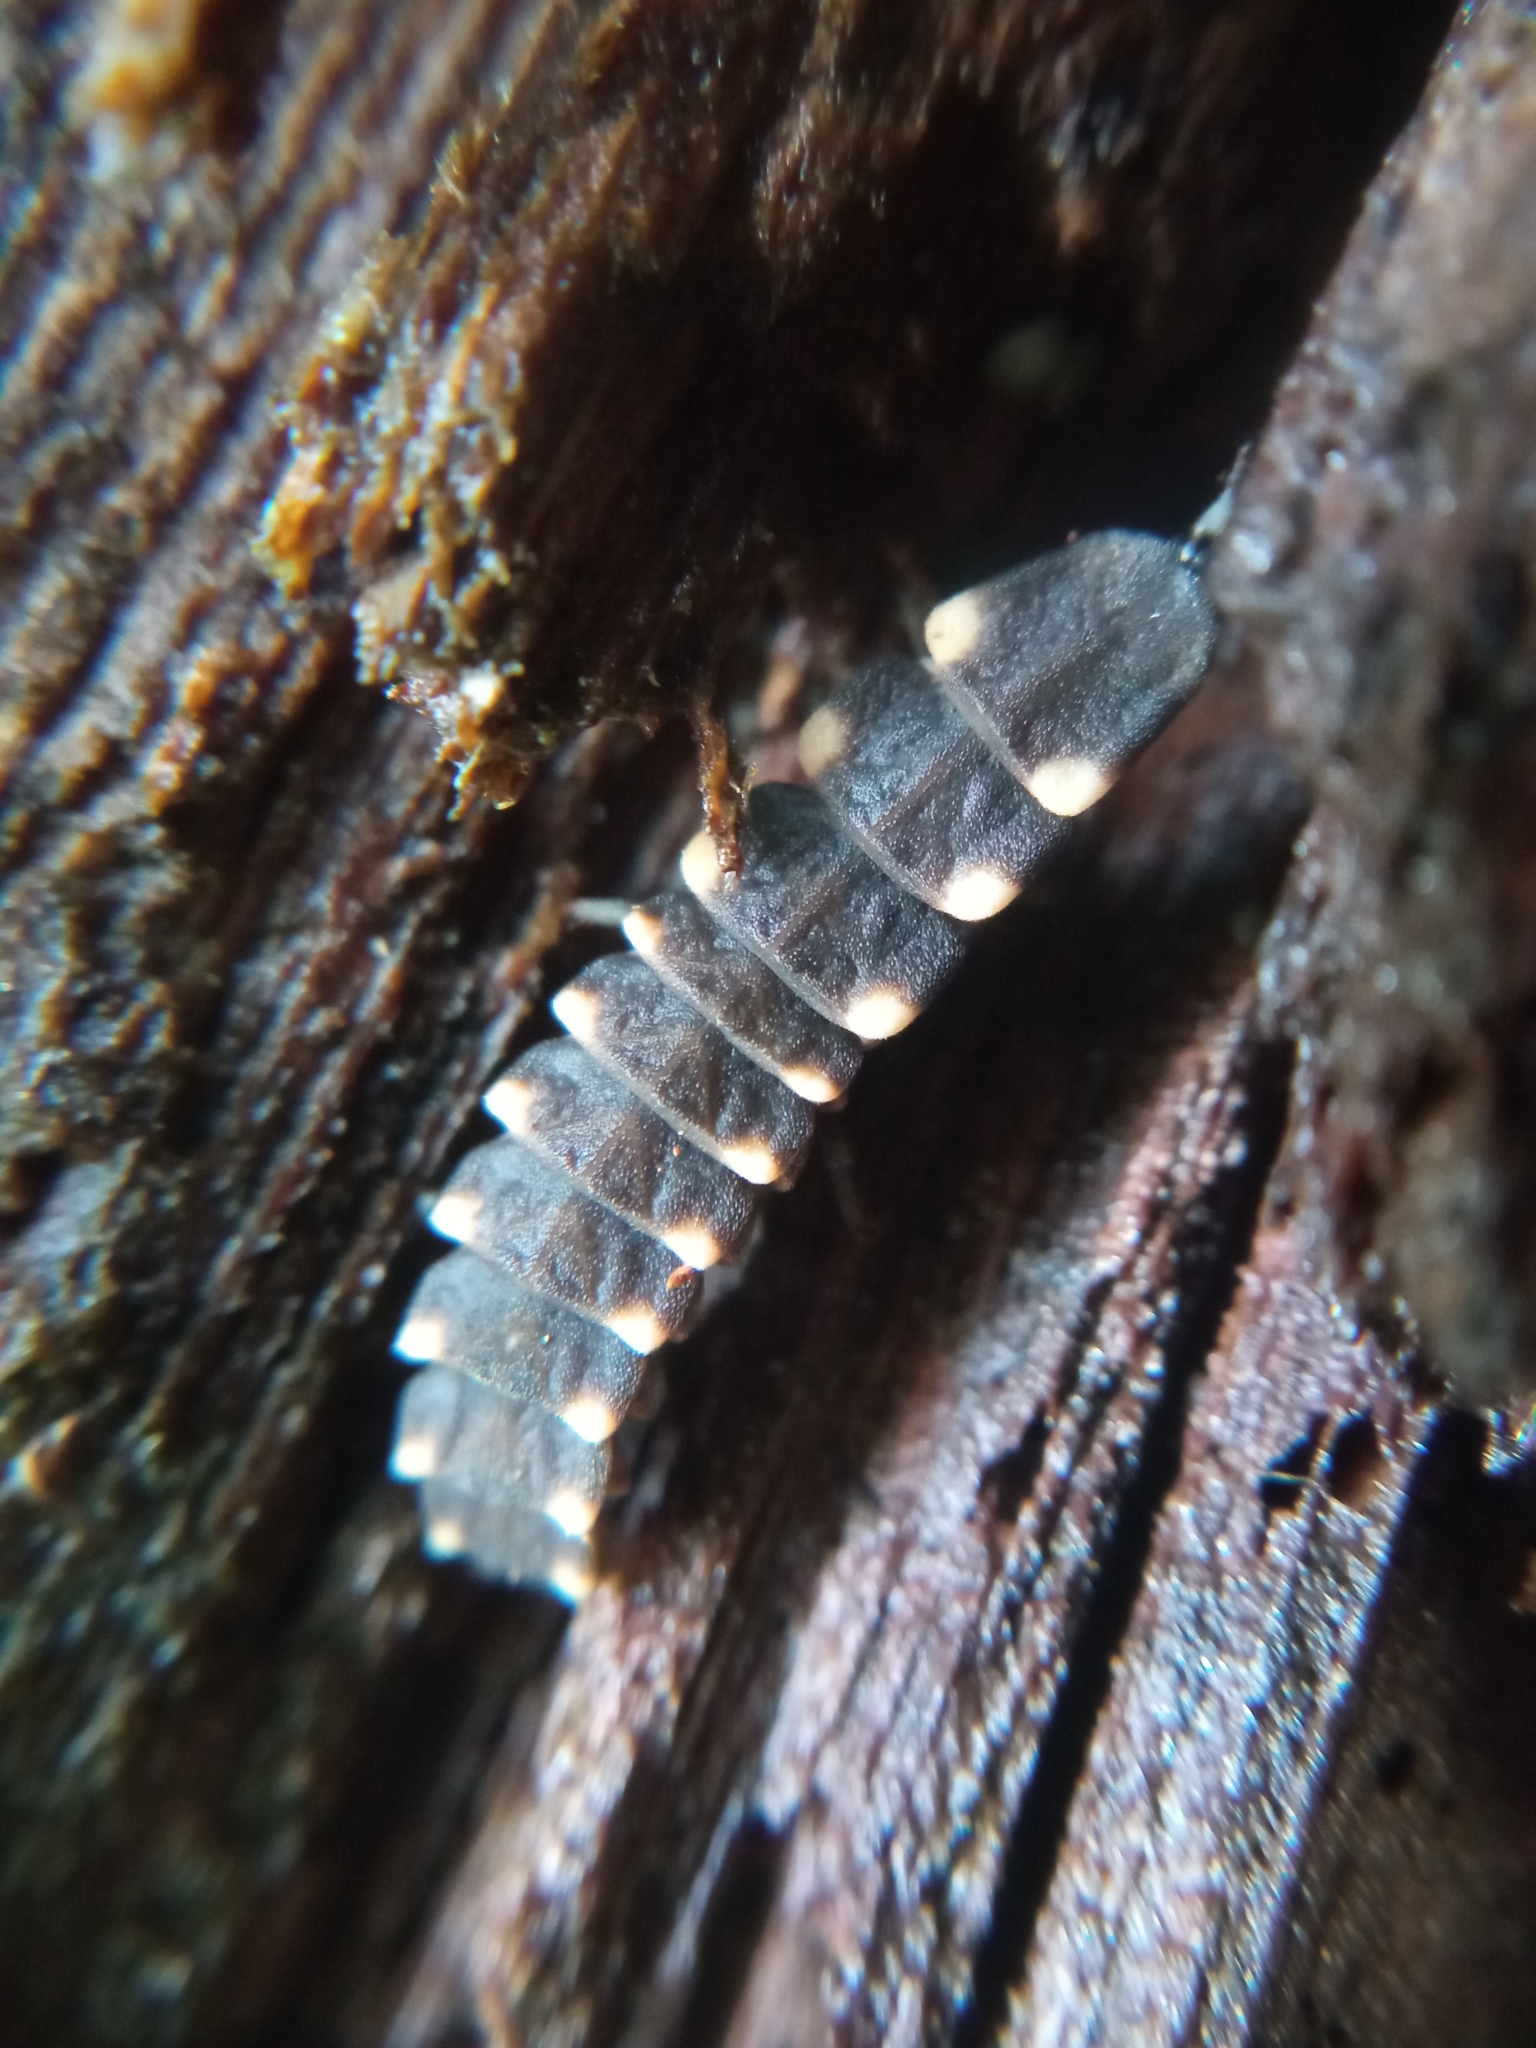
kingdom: Animalia
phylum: Arthropoda
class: Insecta
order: Coleoptera
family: Lampyridae
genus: Lampyris
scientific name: Lampyris noctiluca
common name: Glow-worm
